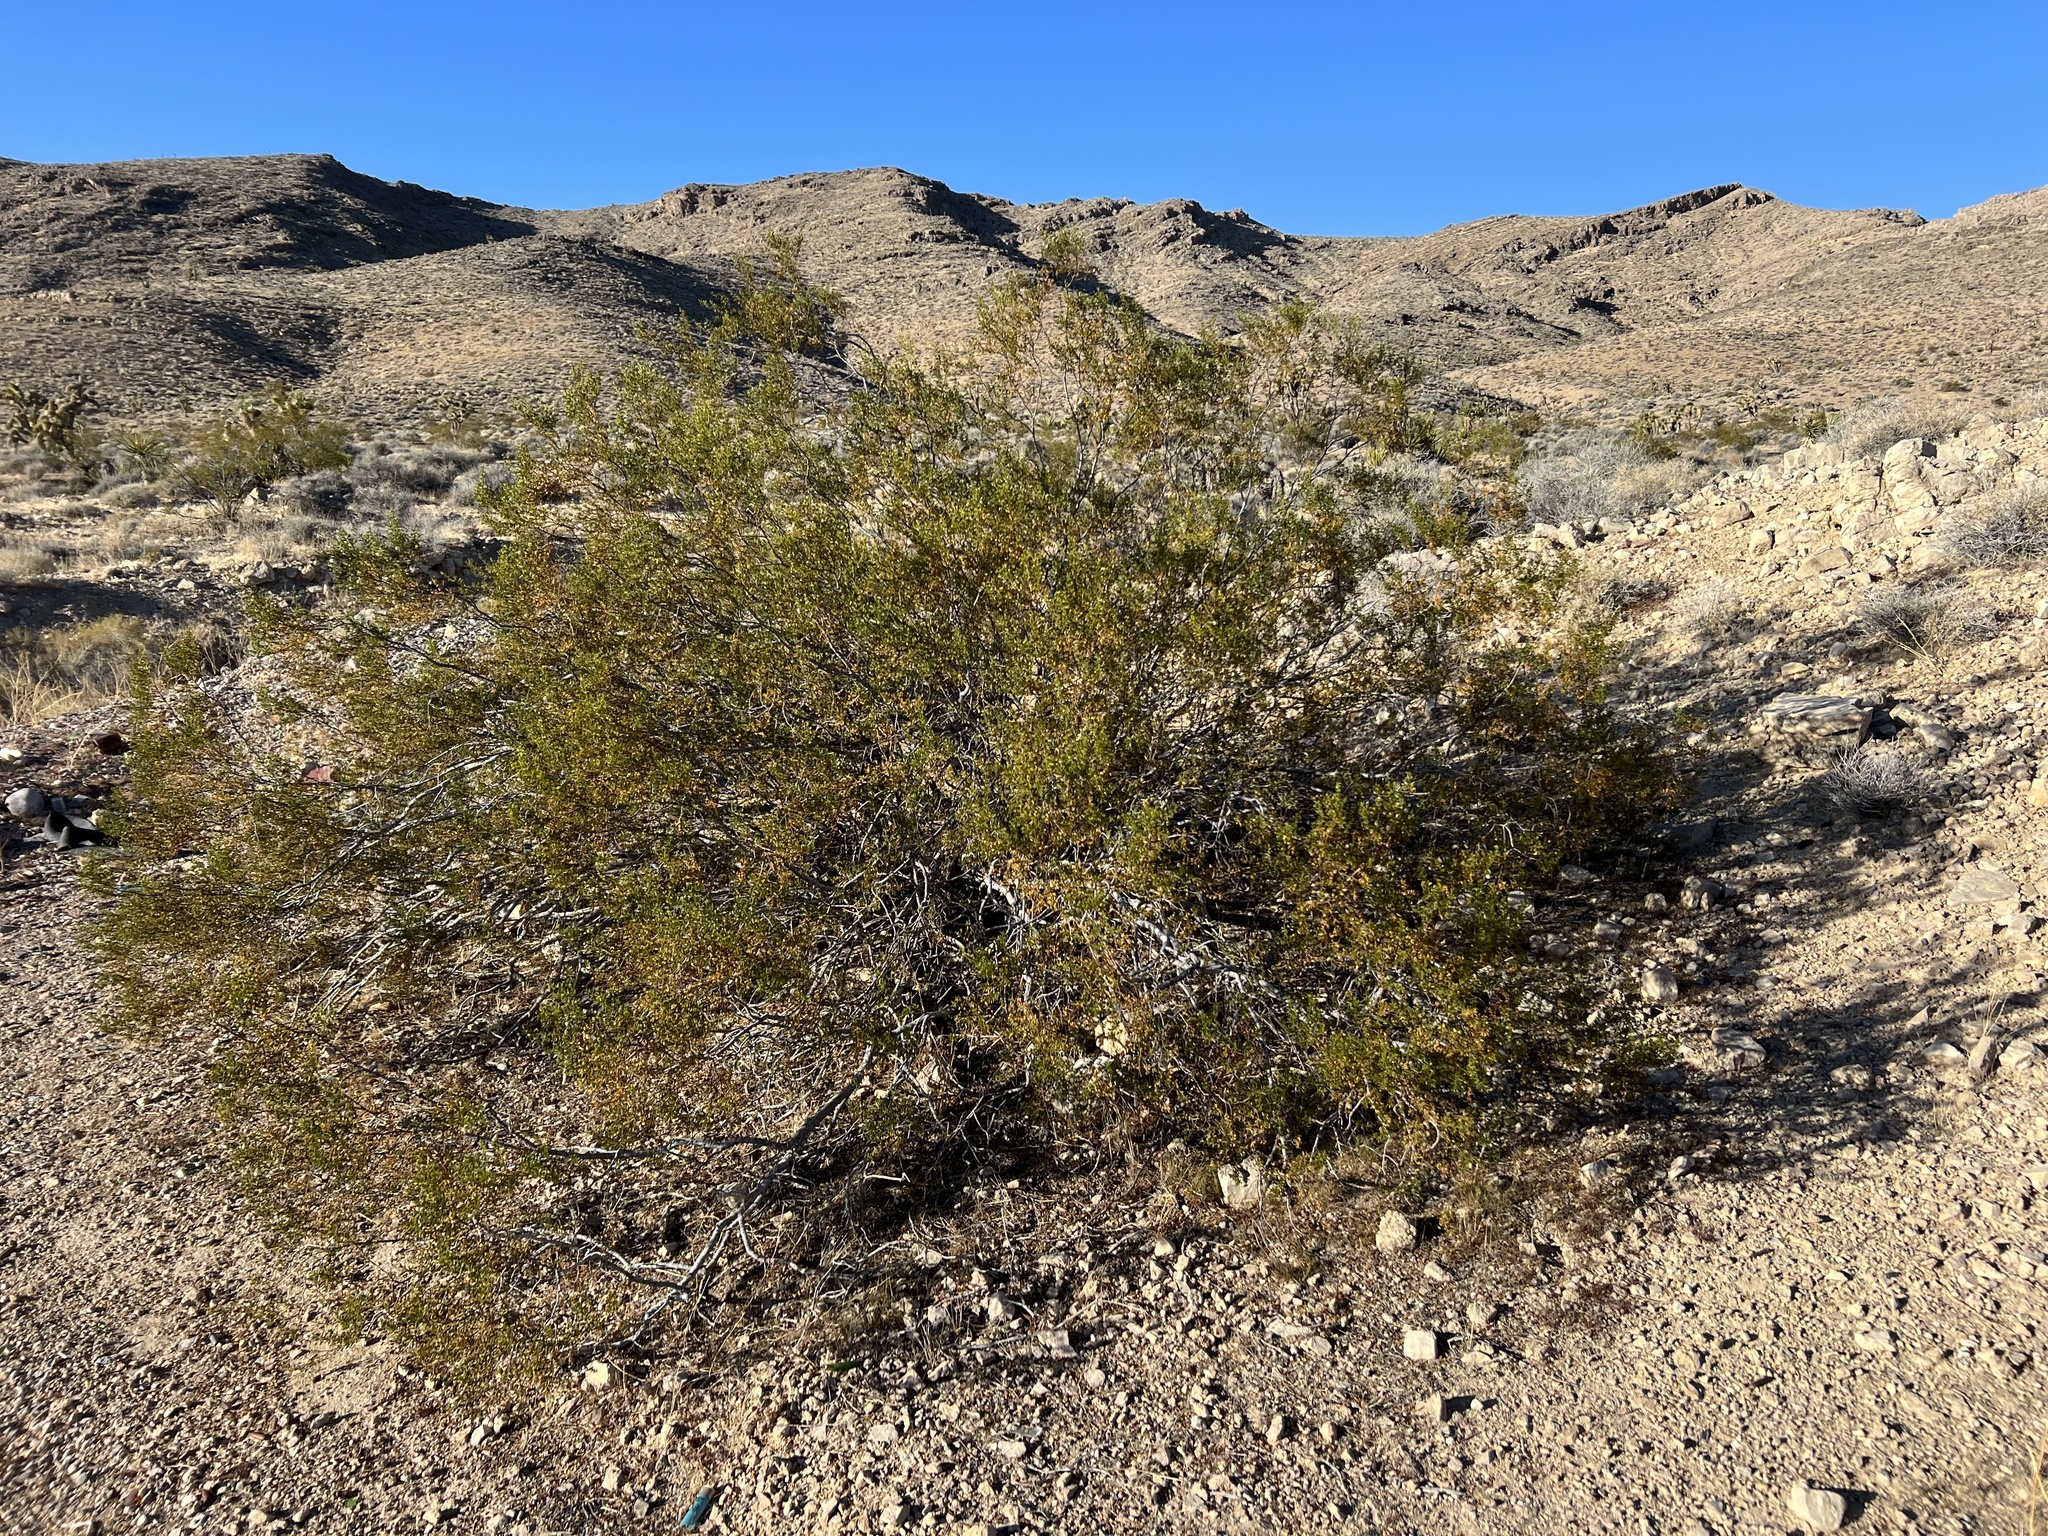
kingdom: Plantae
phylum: Tracheophyta
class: Magnoliopsida
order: Zygophyllales
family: Zygophyllaceae
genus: Larrea
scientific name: Larrea tridentata
